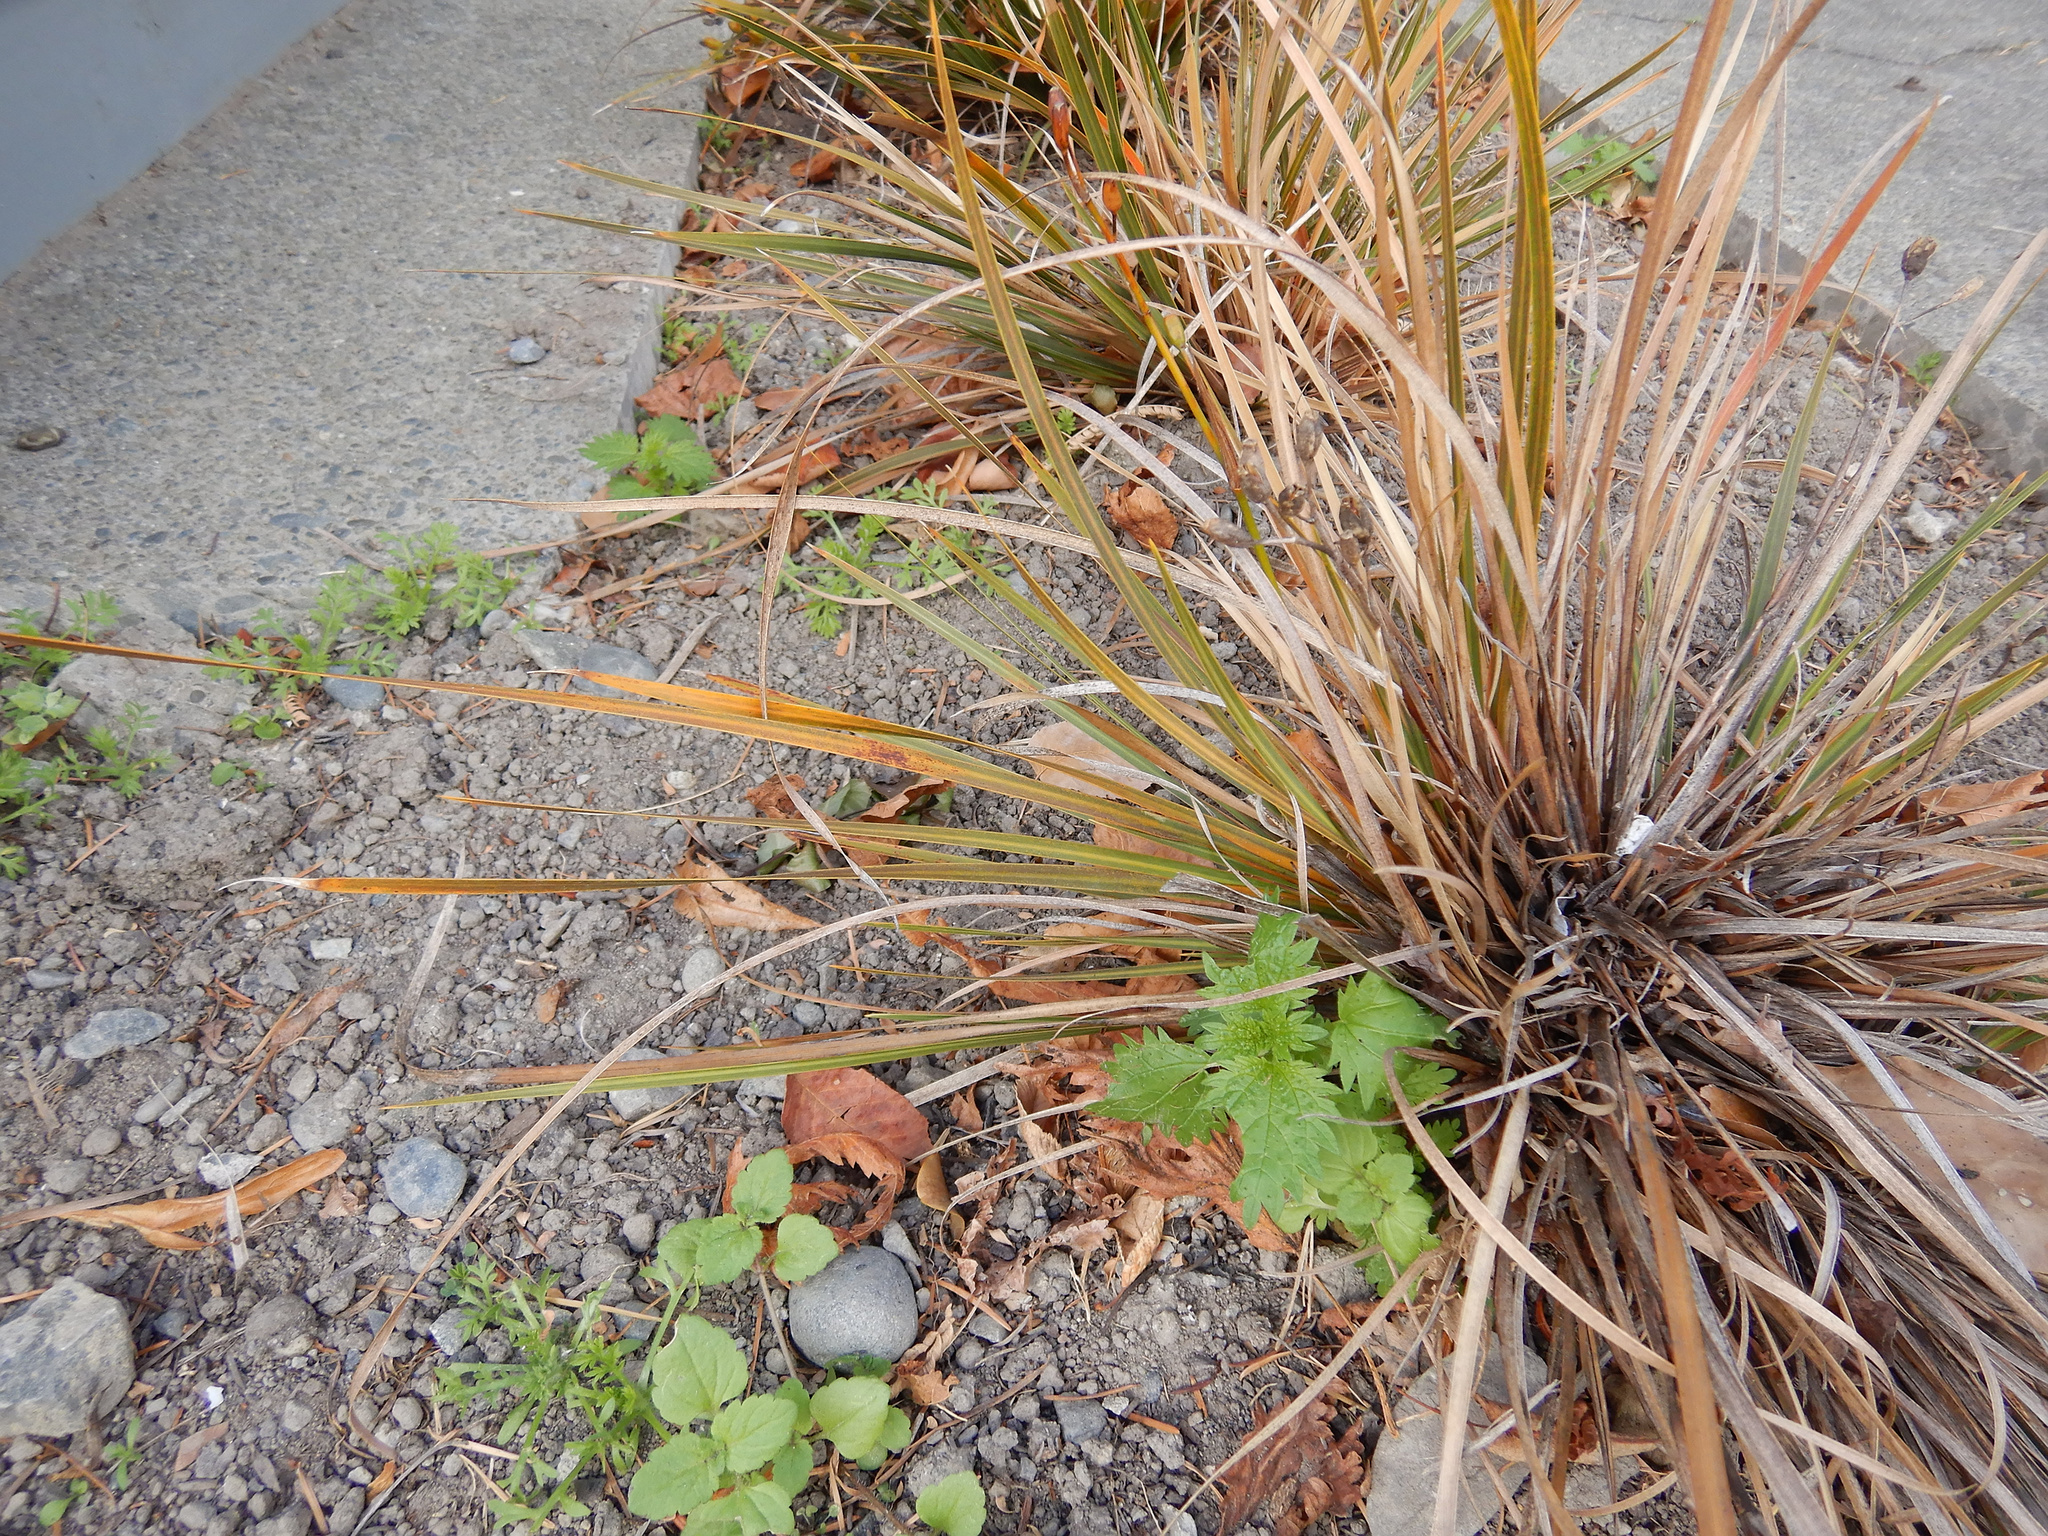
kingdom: Plantae
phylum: Tracheophyta
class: Magnoliopsida
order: Rosales
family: Urticaceae
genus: Urtica
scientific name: Urtica urens
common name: Dwarf nettle
